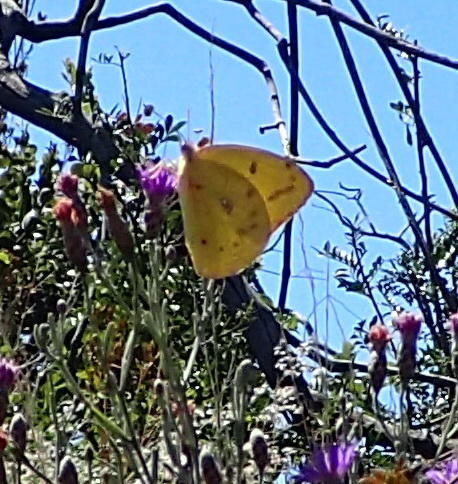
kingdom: Animalia
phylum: Arthropoda
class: Insecta
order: Lepidoptera
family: Pieridae
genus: Catopsilia
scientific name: Catopsilia florella
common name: African migrant
